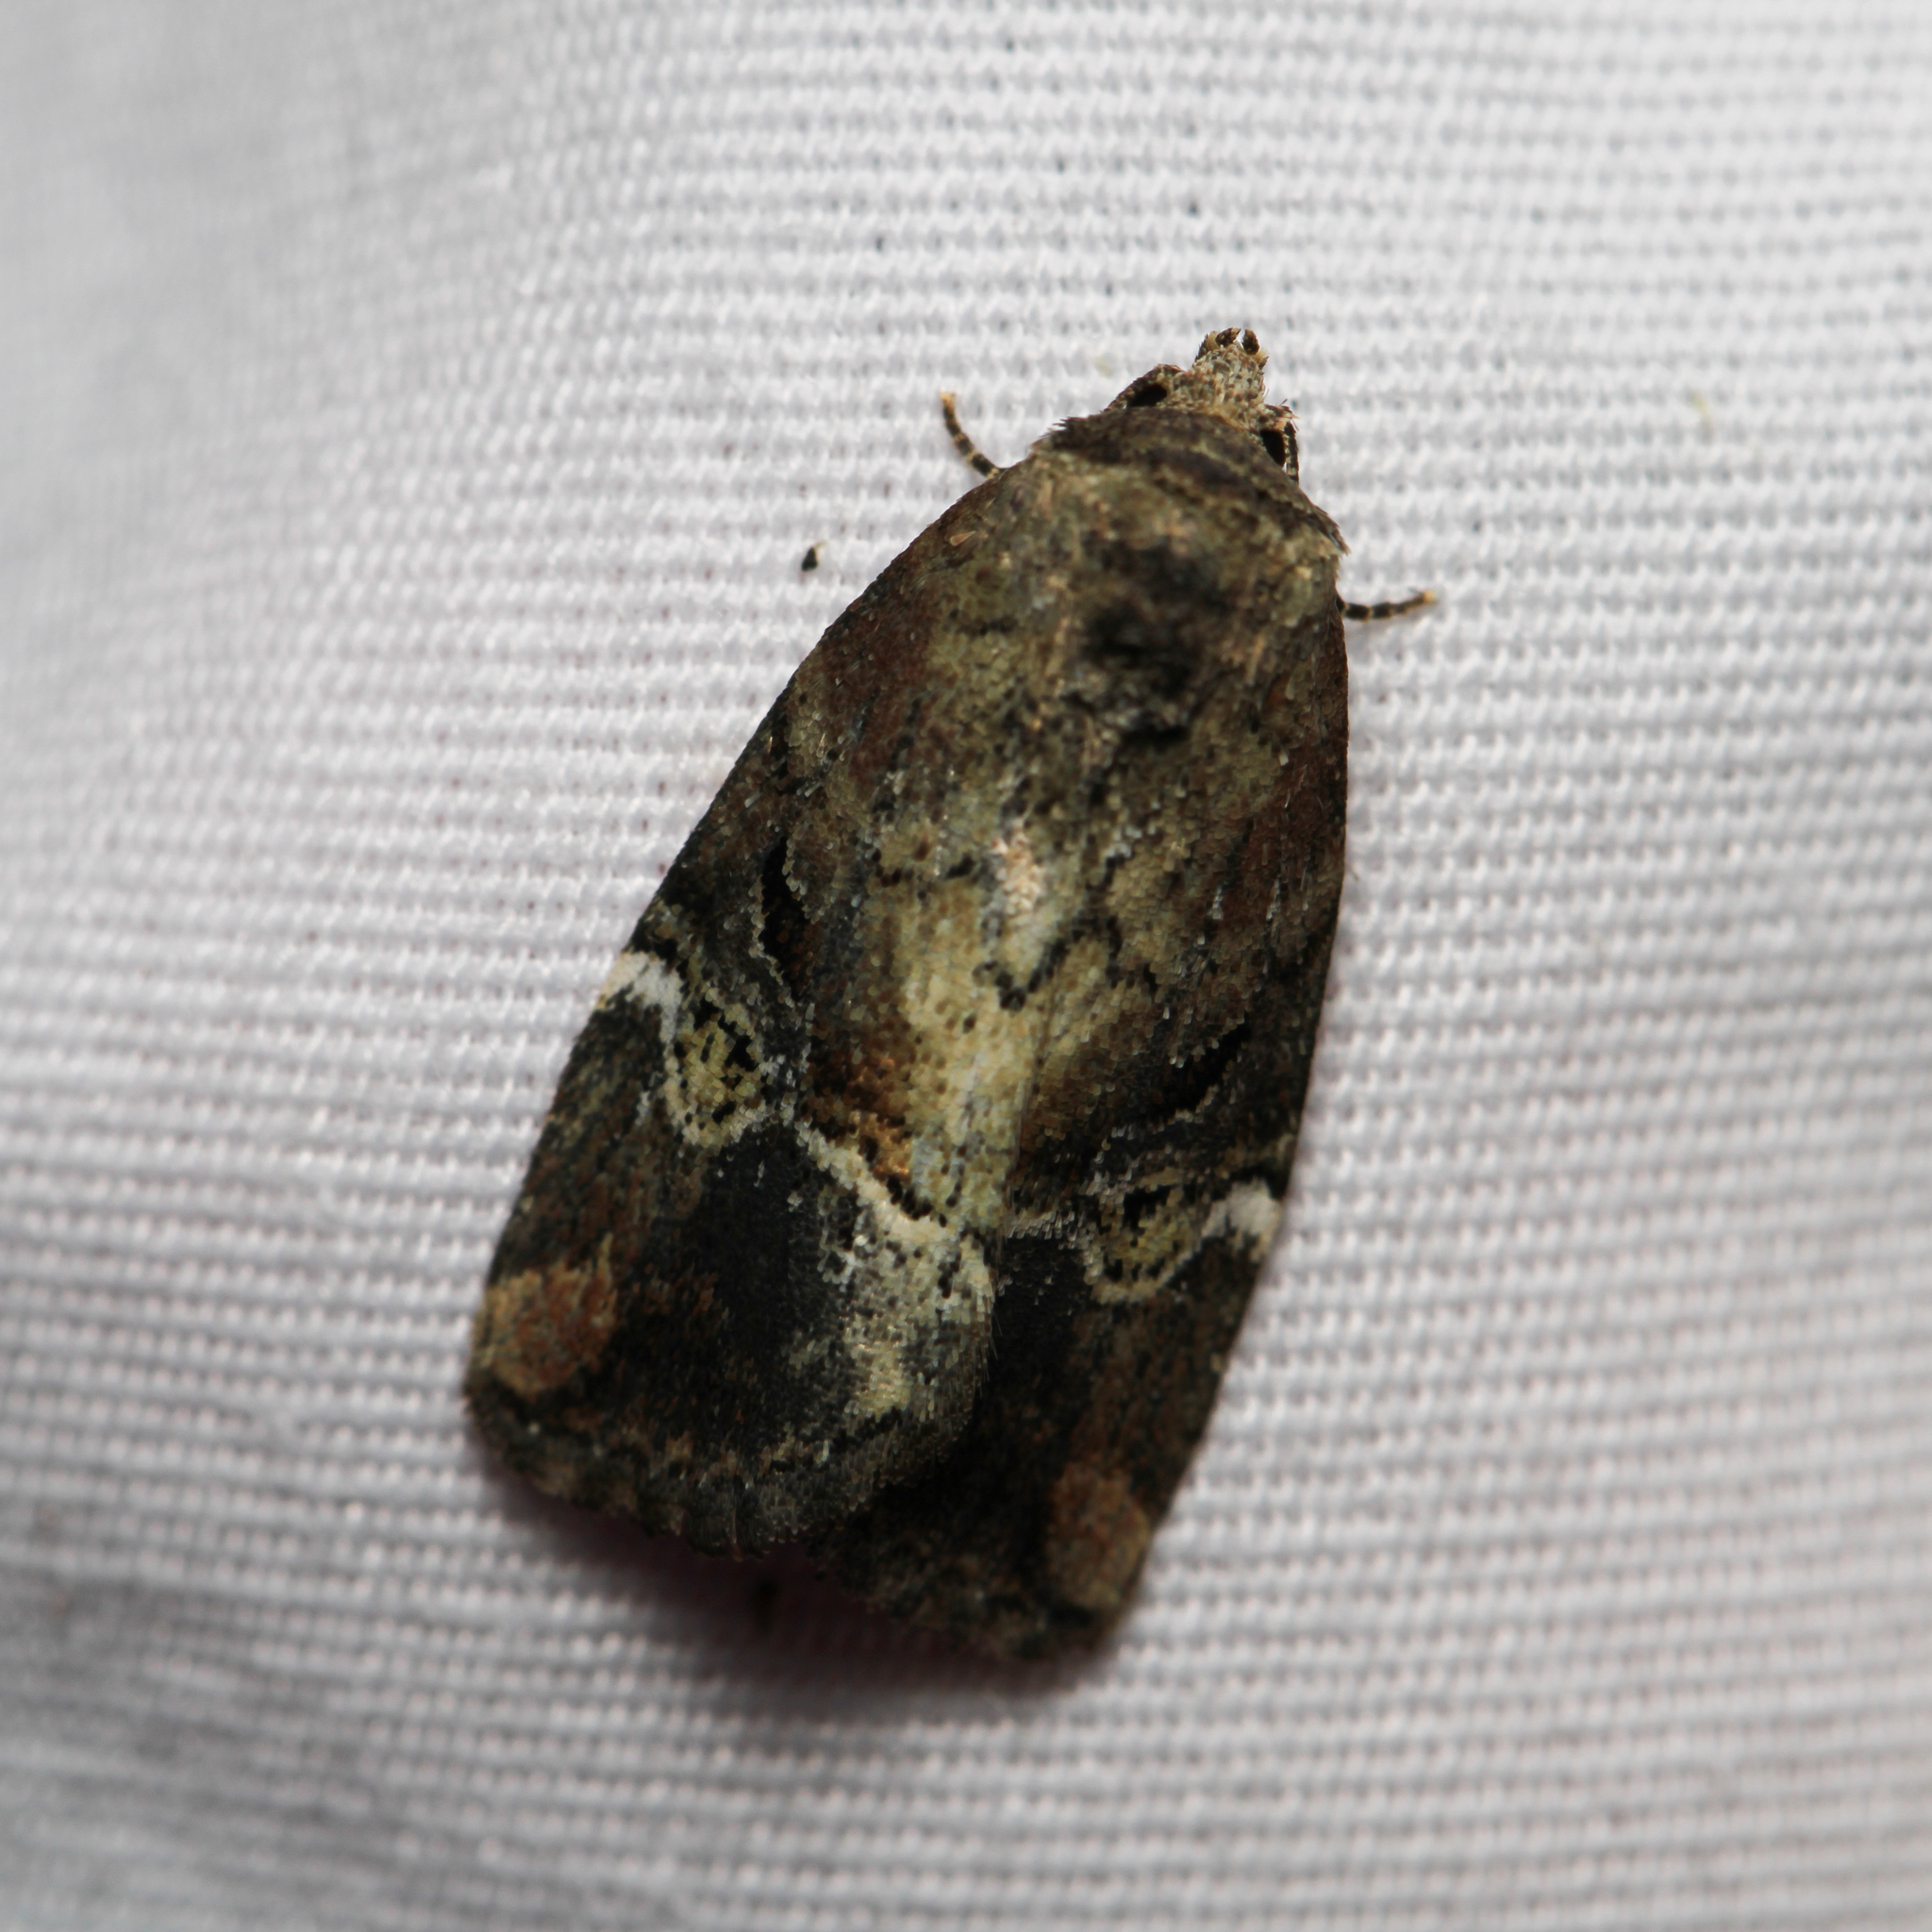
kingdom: Animalia
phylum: Arthropoda
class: Insecta
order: Lepidoptera
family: Noctuidae
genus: Elaphria
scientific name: Elaphria versicolor
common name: Fir harlequin
